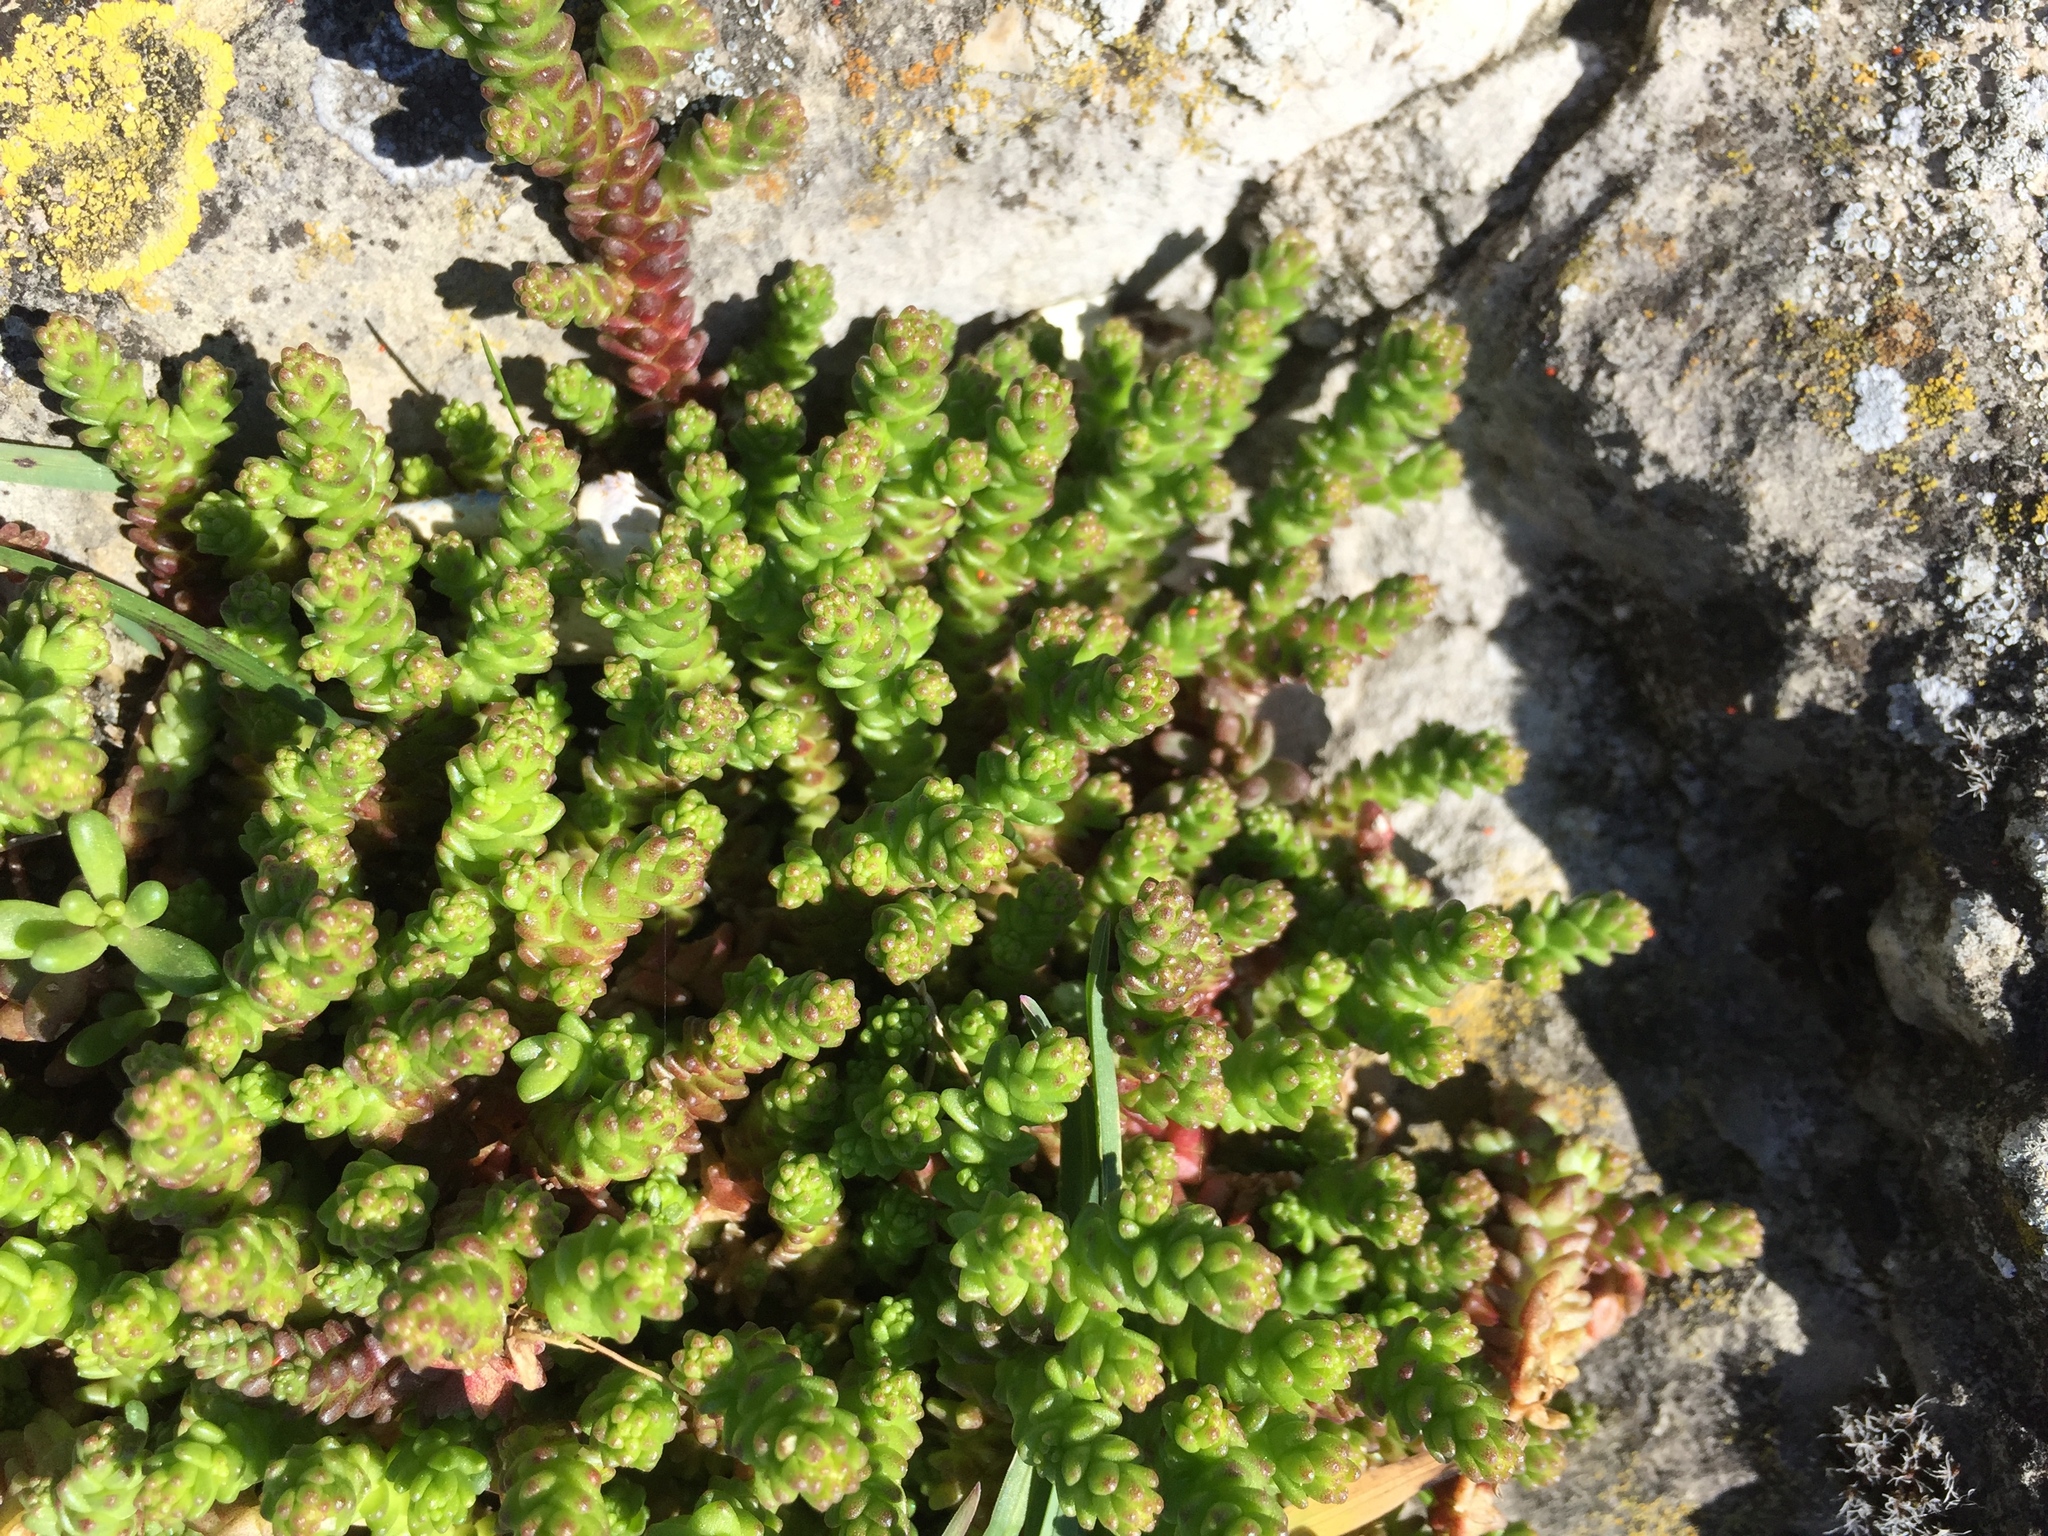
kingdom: Plantae
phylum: Tracheophyta
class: Magnoliopsida
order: Saxifragales
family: Crassulaceae
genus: Sedum
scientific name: Sedum acre
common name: Biting stonecrop
